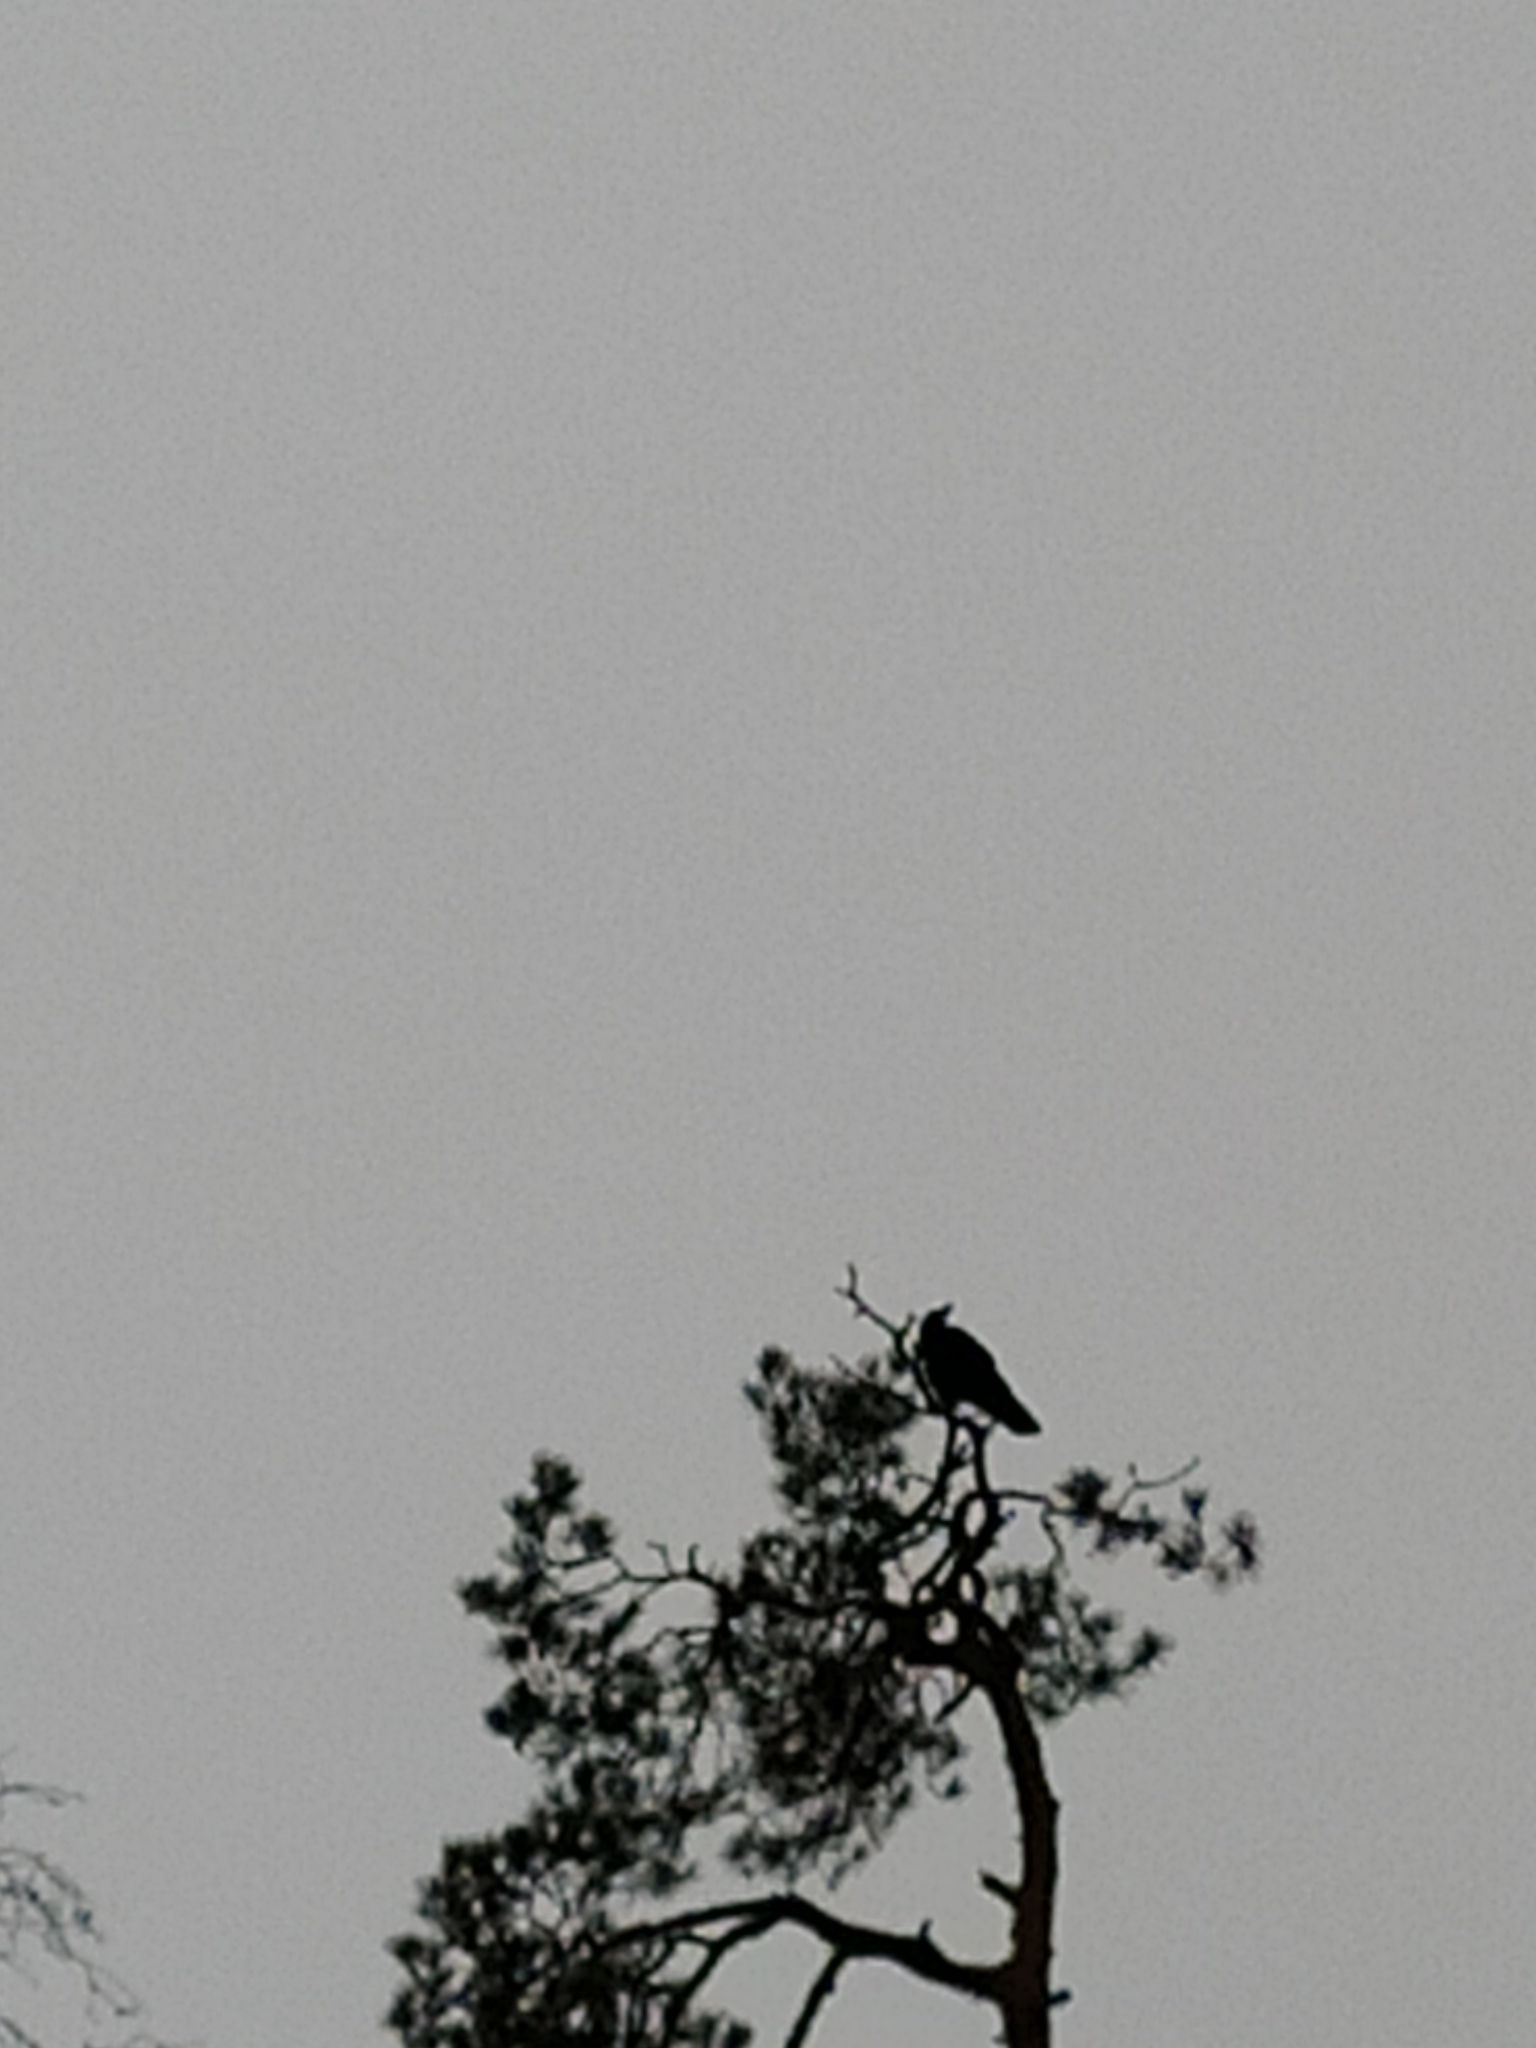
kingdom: Animalia
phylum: Chordata
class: Aves
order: Passeriformes
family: Corvidae
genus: Corvus
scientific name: Corvus corax
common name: Common raven
